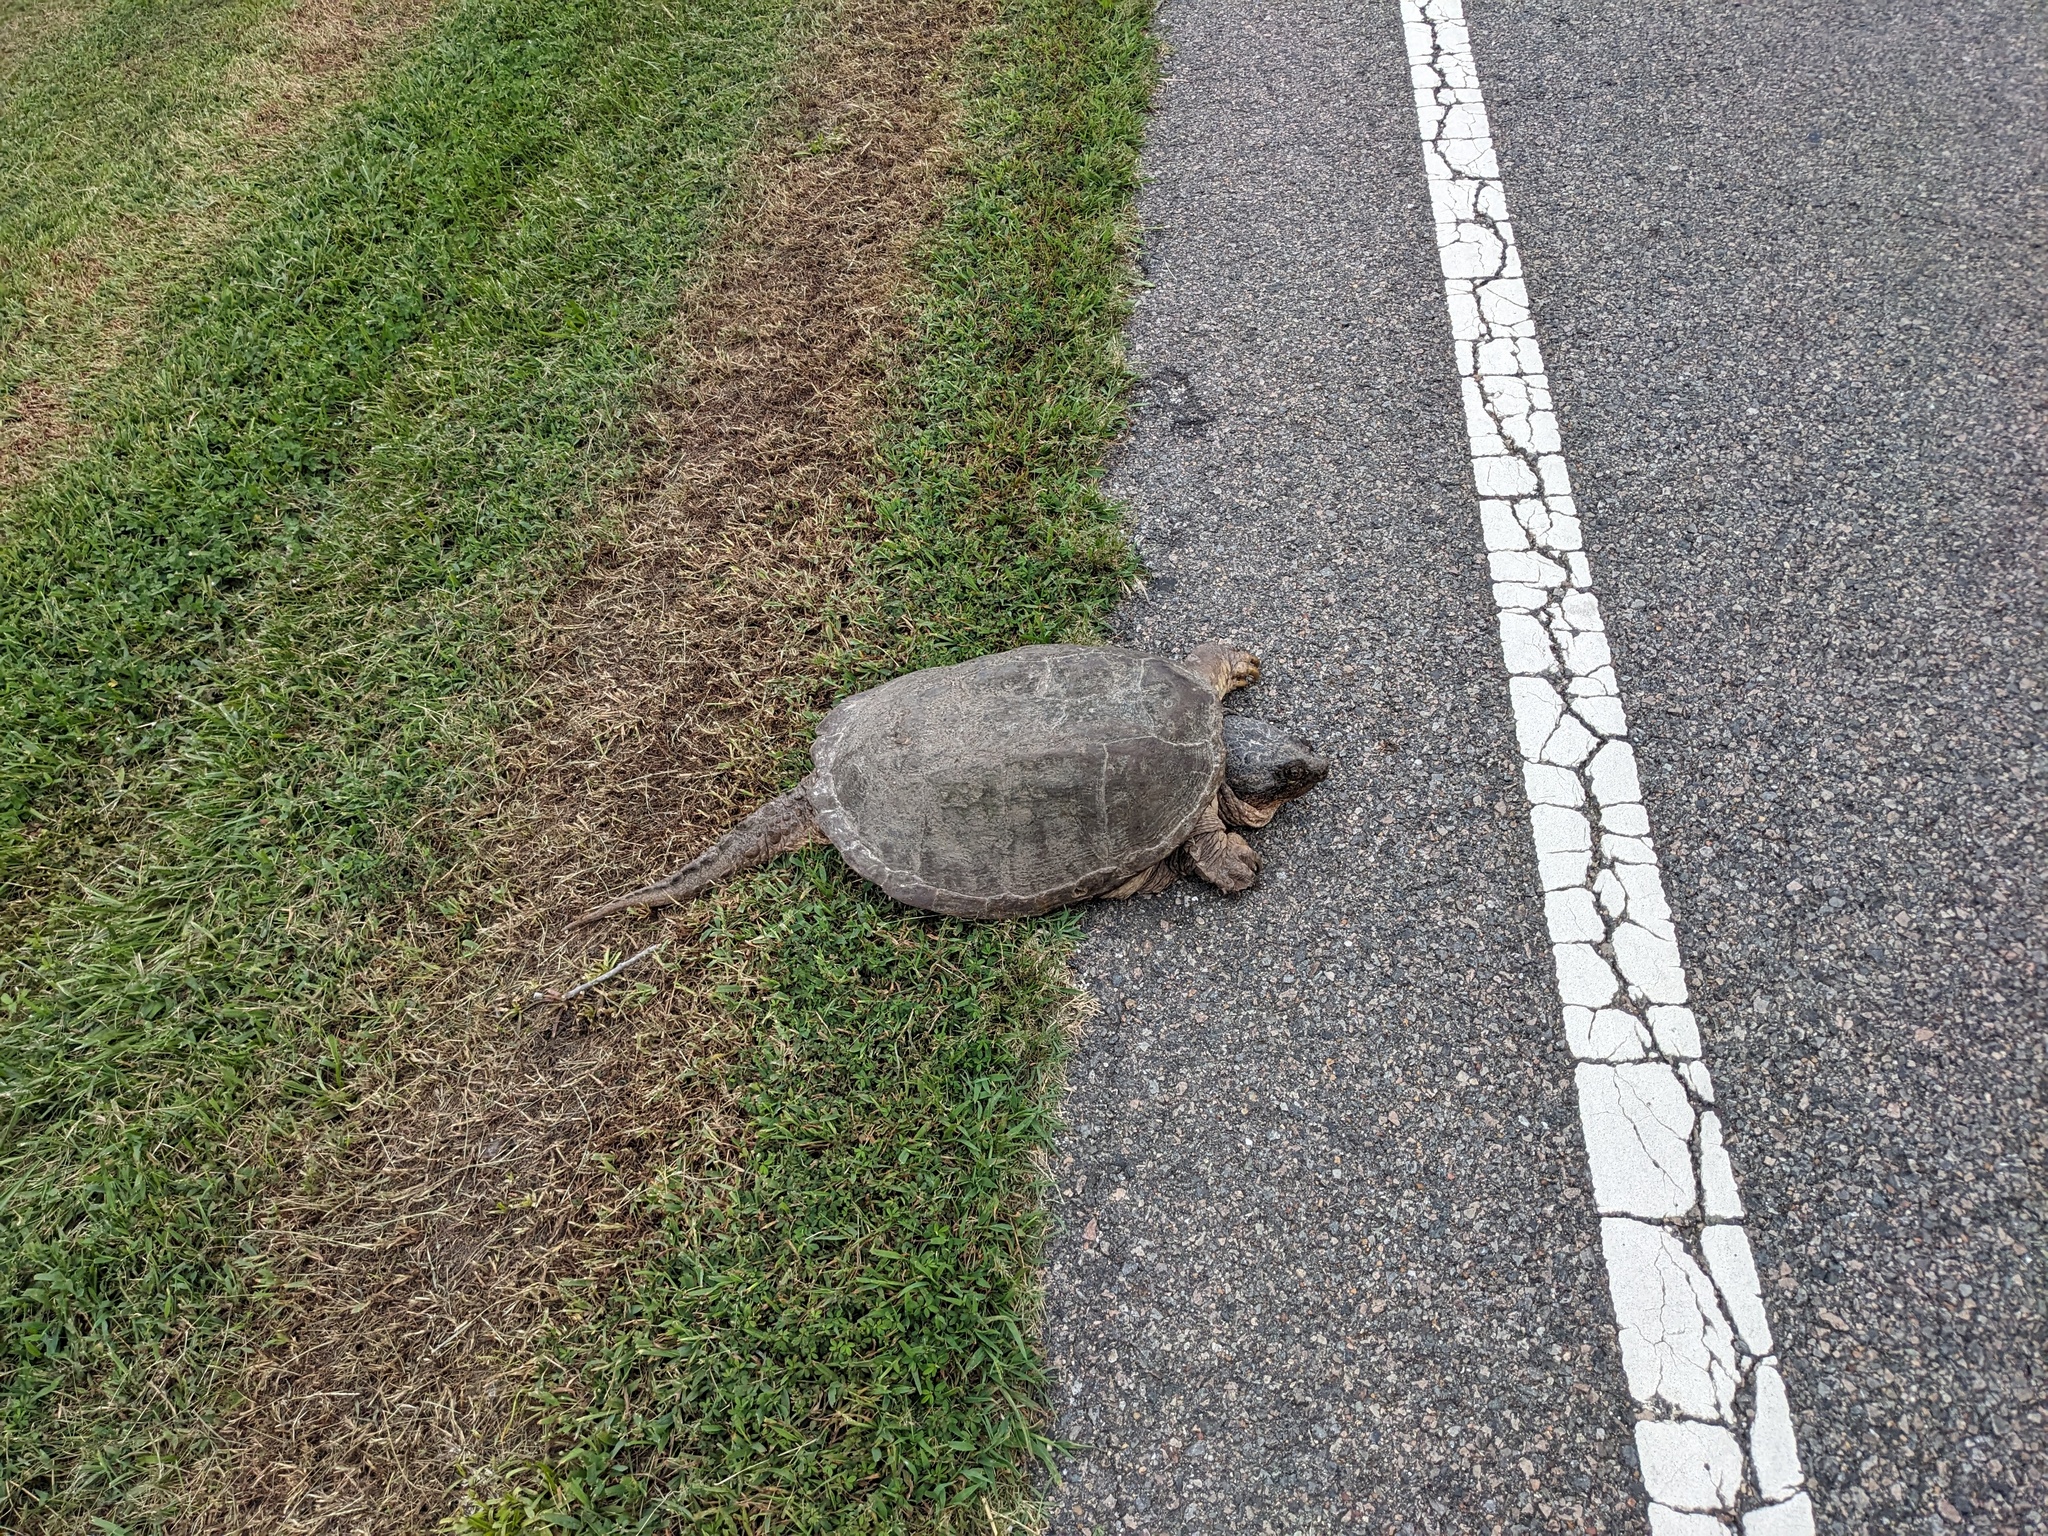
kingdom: Animalia
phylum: Chordata
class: Testudines
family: Chelydridae
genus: Chelydra
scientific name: Chelydra serpentina
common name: Common snapping turtle
